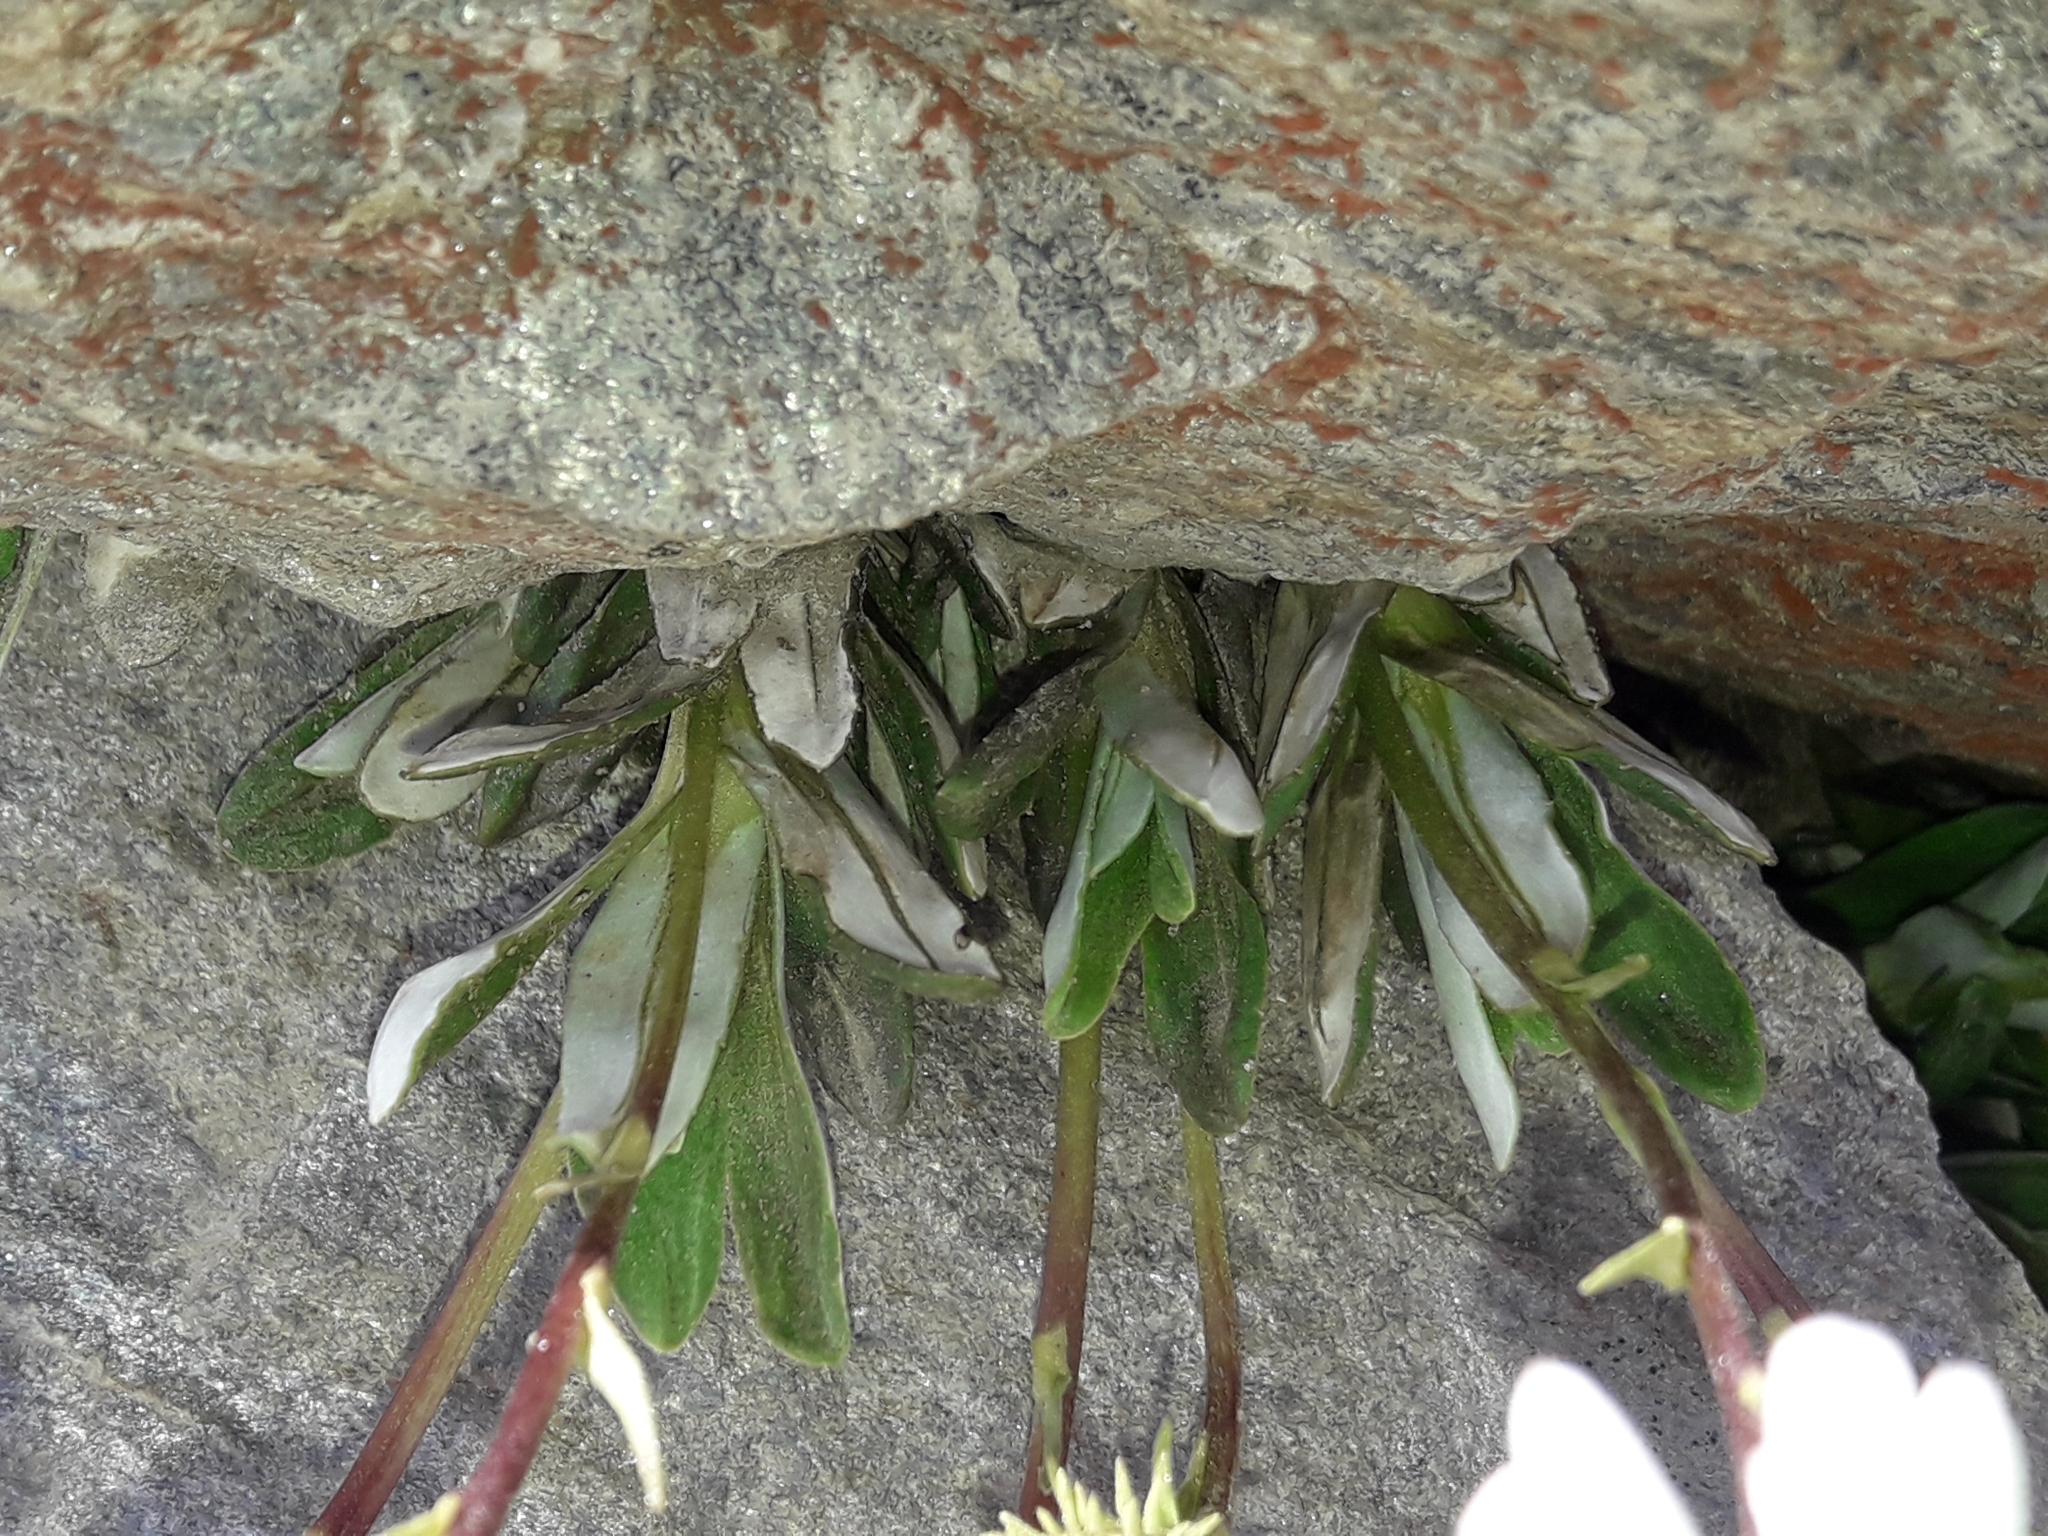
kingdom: Plantae
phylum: Tracheophyta
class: Magnoliopsida
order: Asterales
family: Asteraceae
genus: Celmisia
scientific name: Celmisia angustifolia
